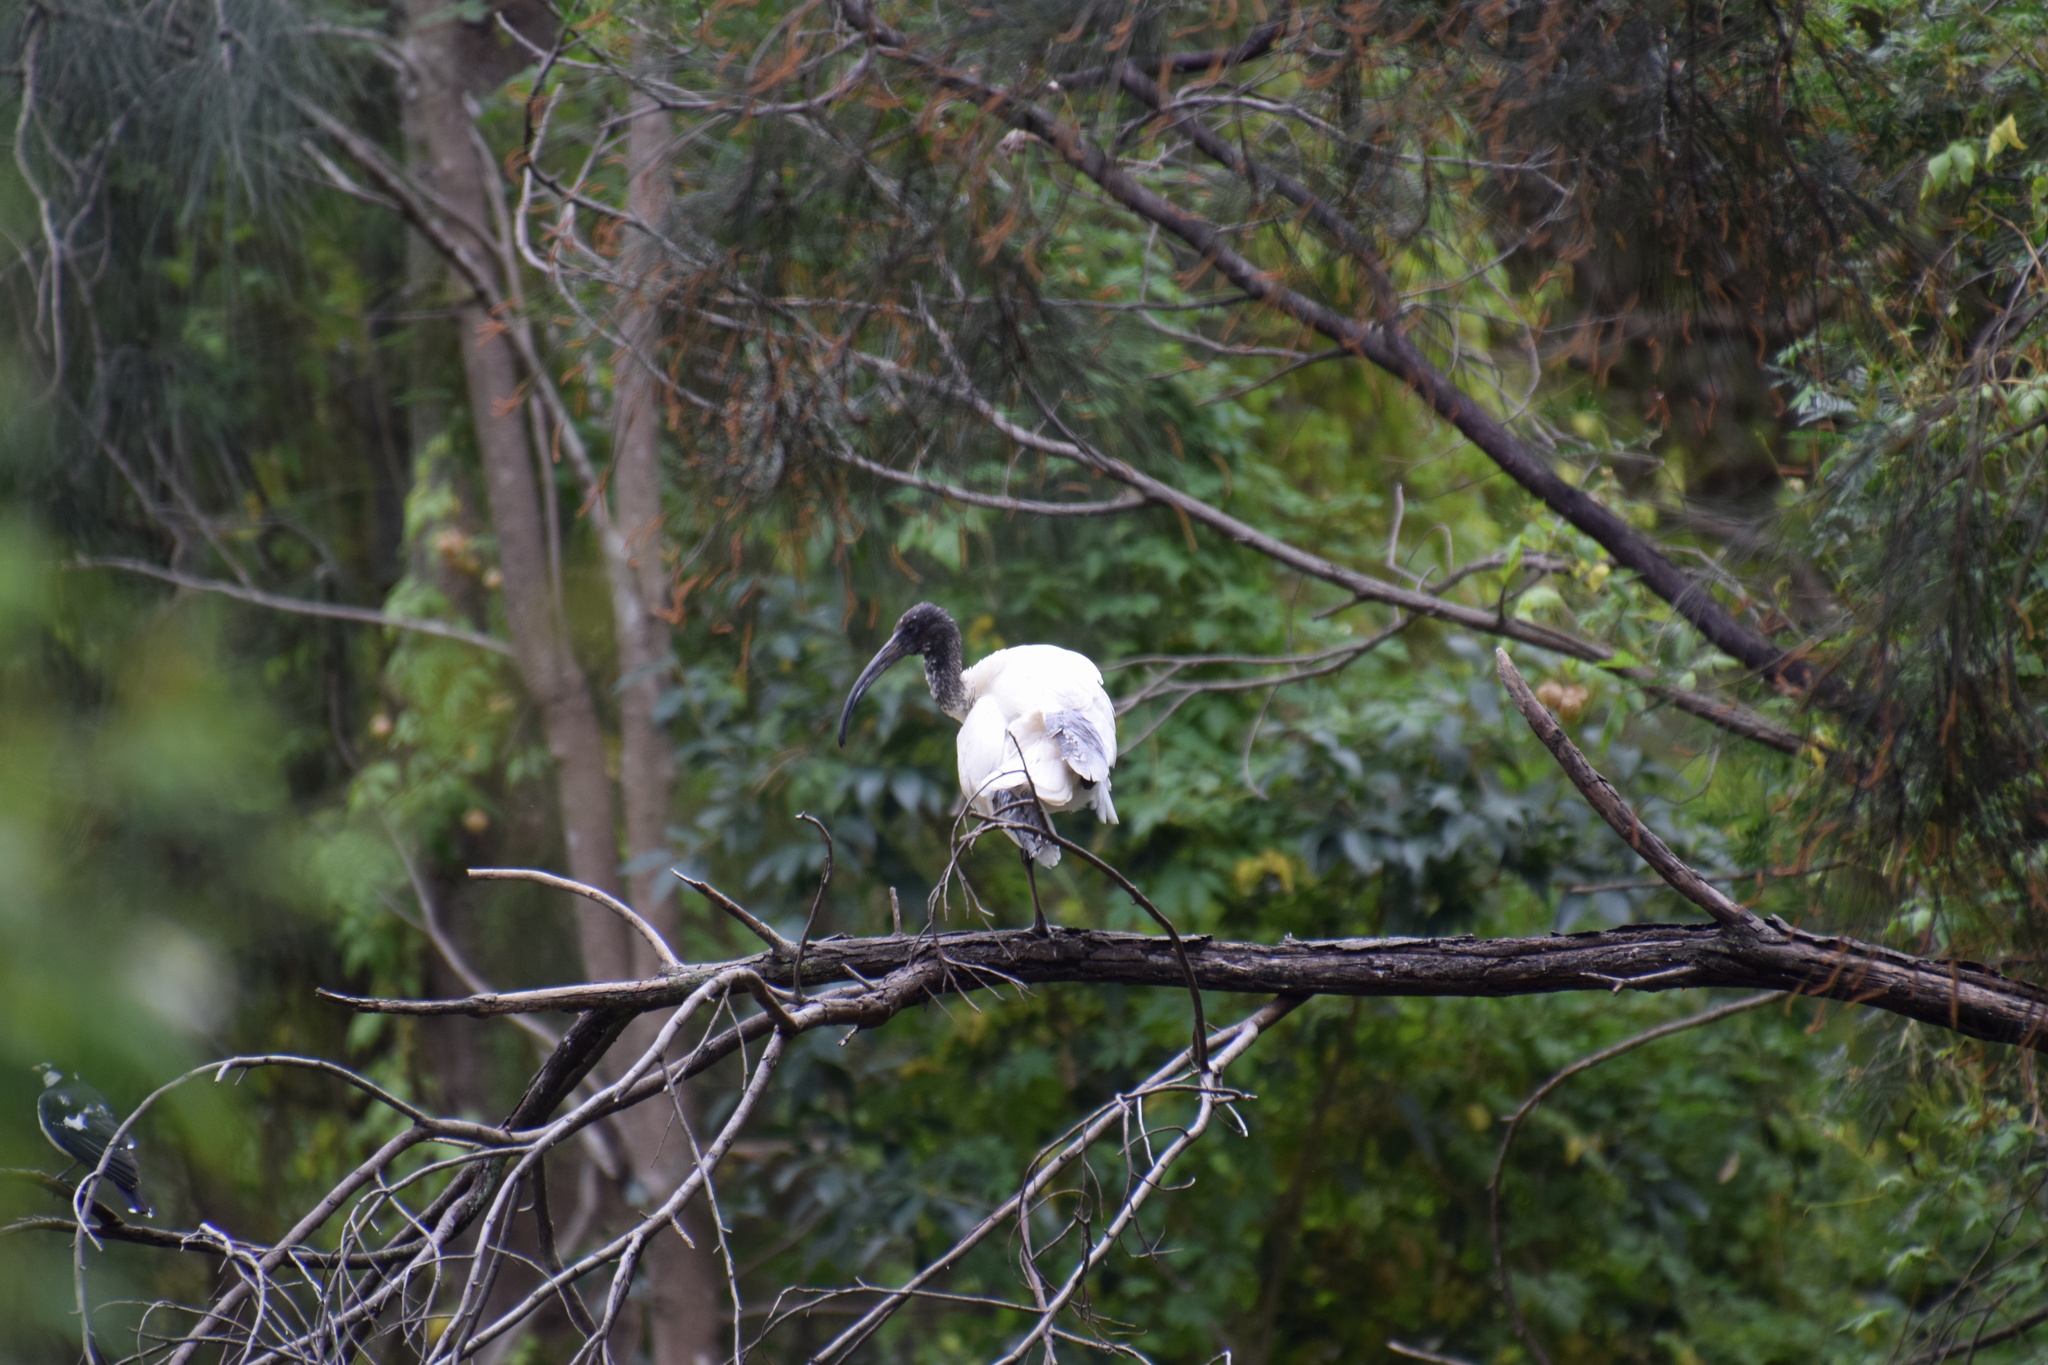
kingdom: Animalia
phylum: Chordata
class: Aves
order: Pelecaniformes
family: Threskiornithidae
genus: Threskiornis
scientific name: Threskiornis molucca
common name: Australian white ibis
